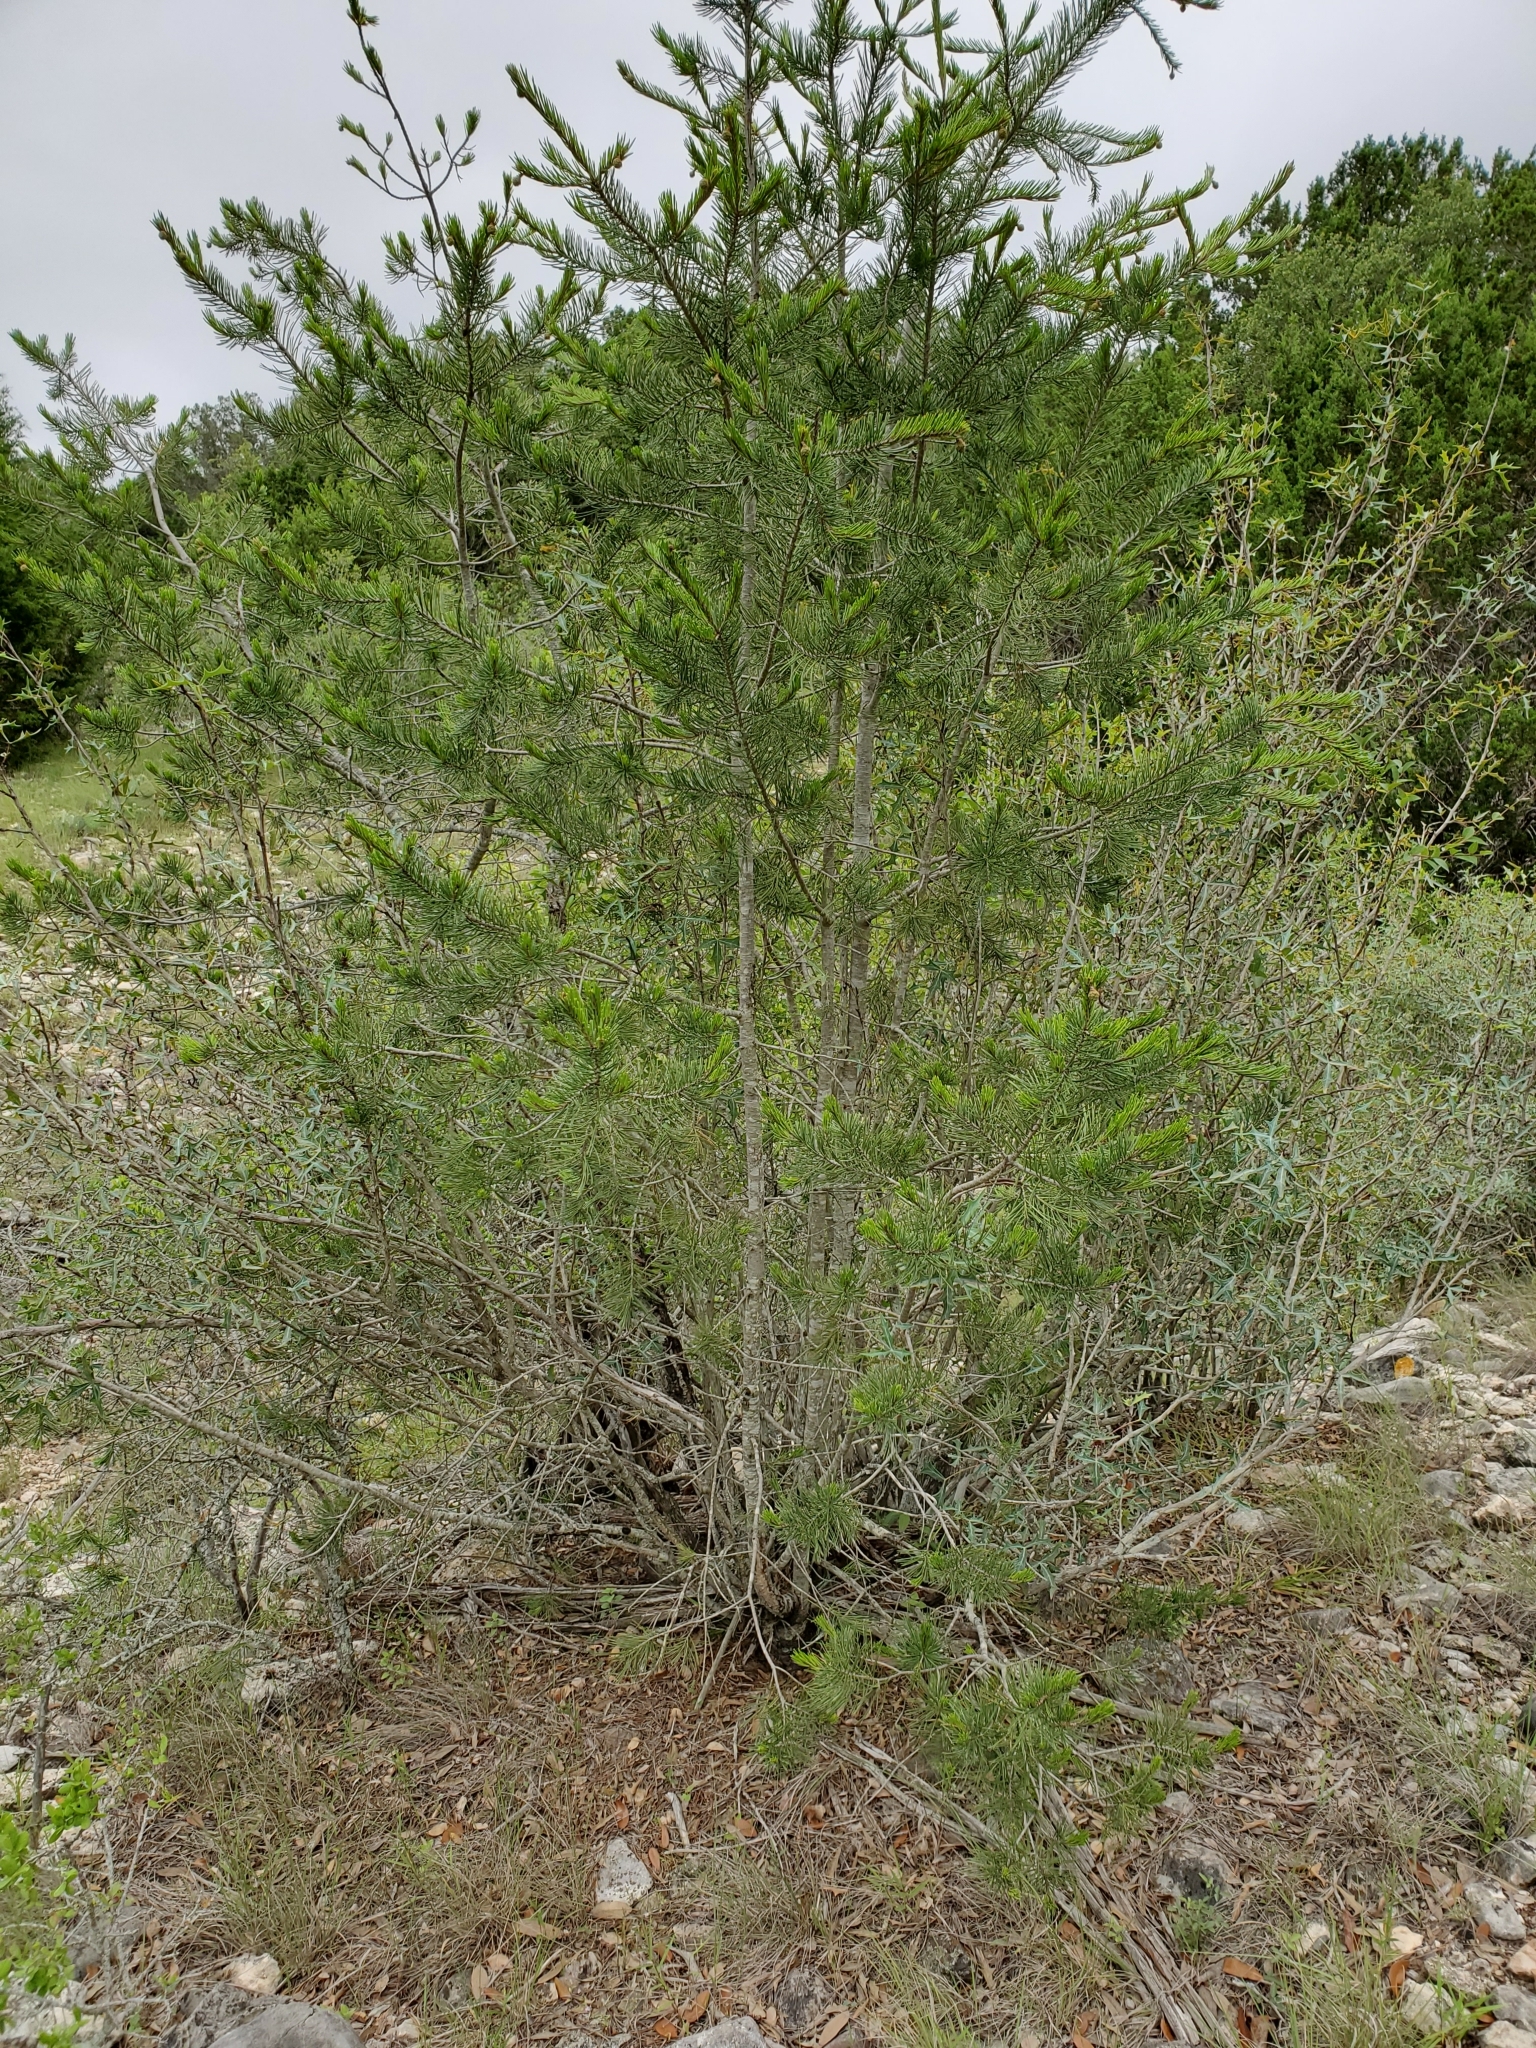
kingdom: Plantae
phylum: Tracheophyta
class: Pinopsida
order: Pinales
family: Pinaceae
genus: Pinus
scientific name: Pinus remota
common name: Nut pine
